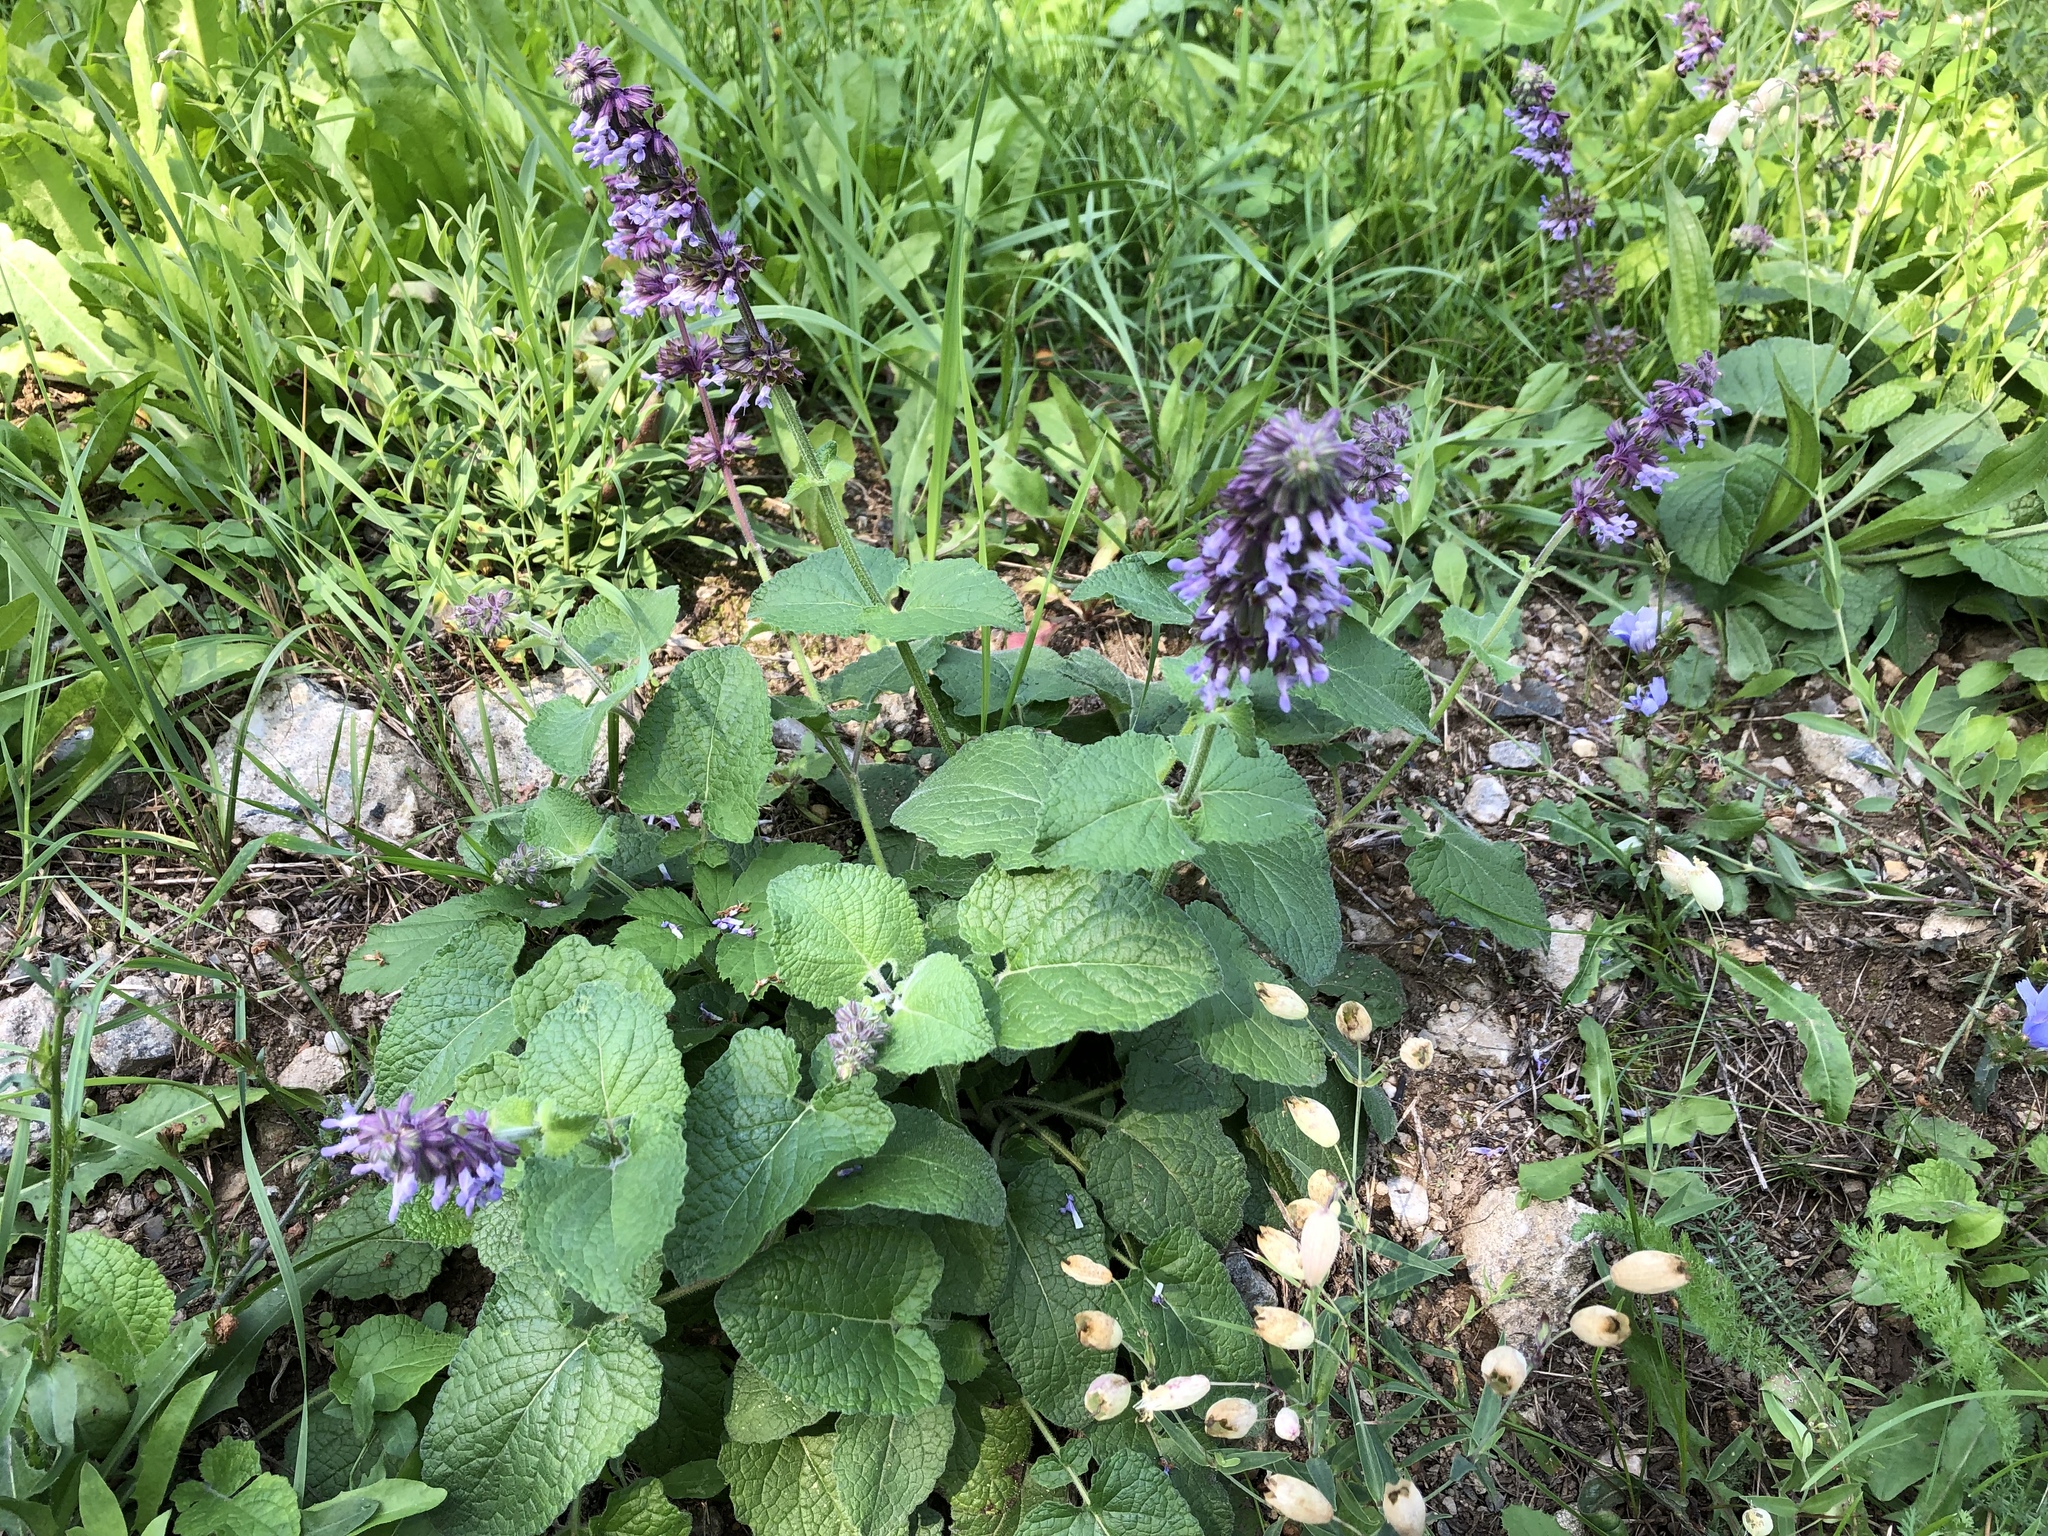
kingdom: Plantae
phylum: Tracheophyta
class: Magnoliopsida
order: Lamiales
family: Lamiaceae
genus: Salvia
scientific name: Salvia verticillata
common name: Whorled clary
